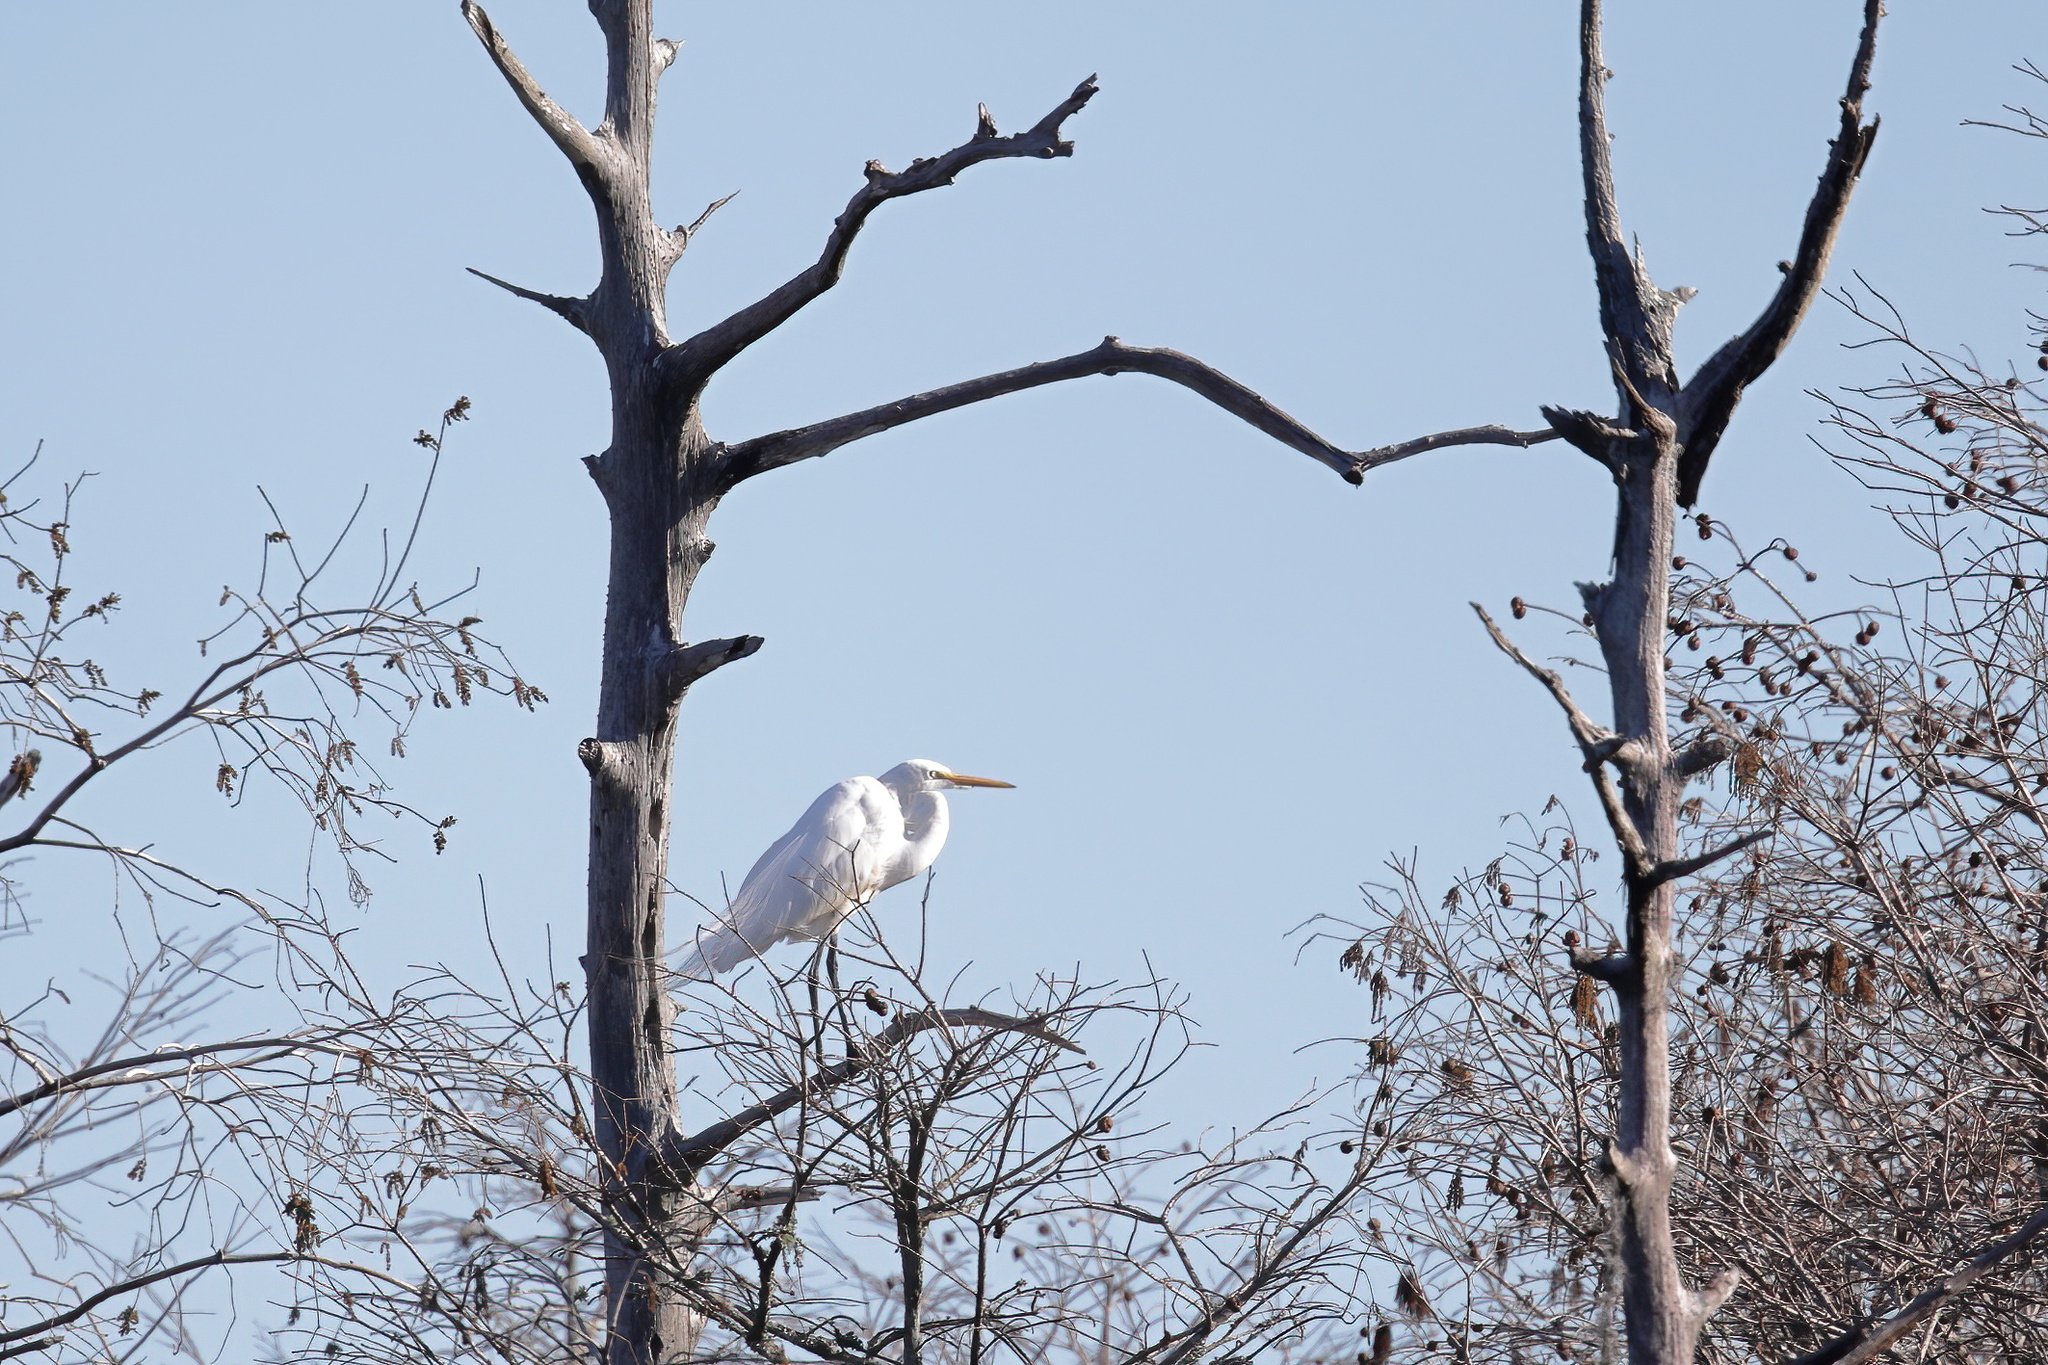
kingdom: Animalia
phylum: Chordata
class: Aves
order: Pelecaniformes
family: Ardeidae
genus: Ardea
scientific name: Ardea alba
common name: Great egret
